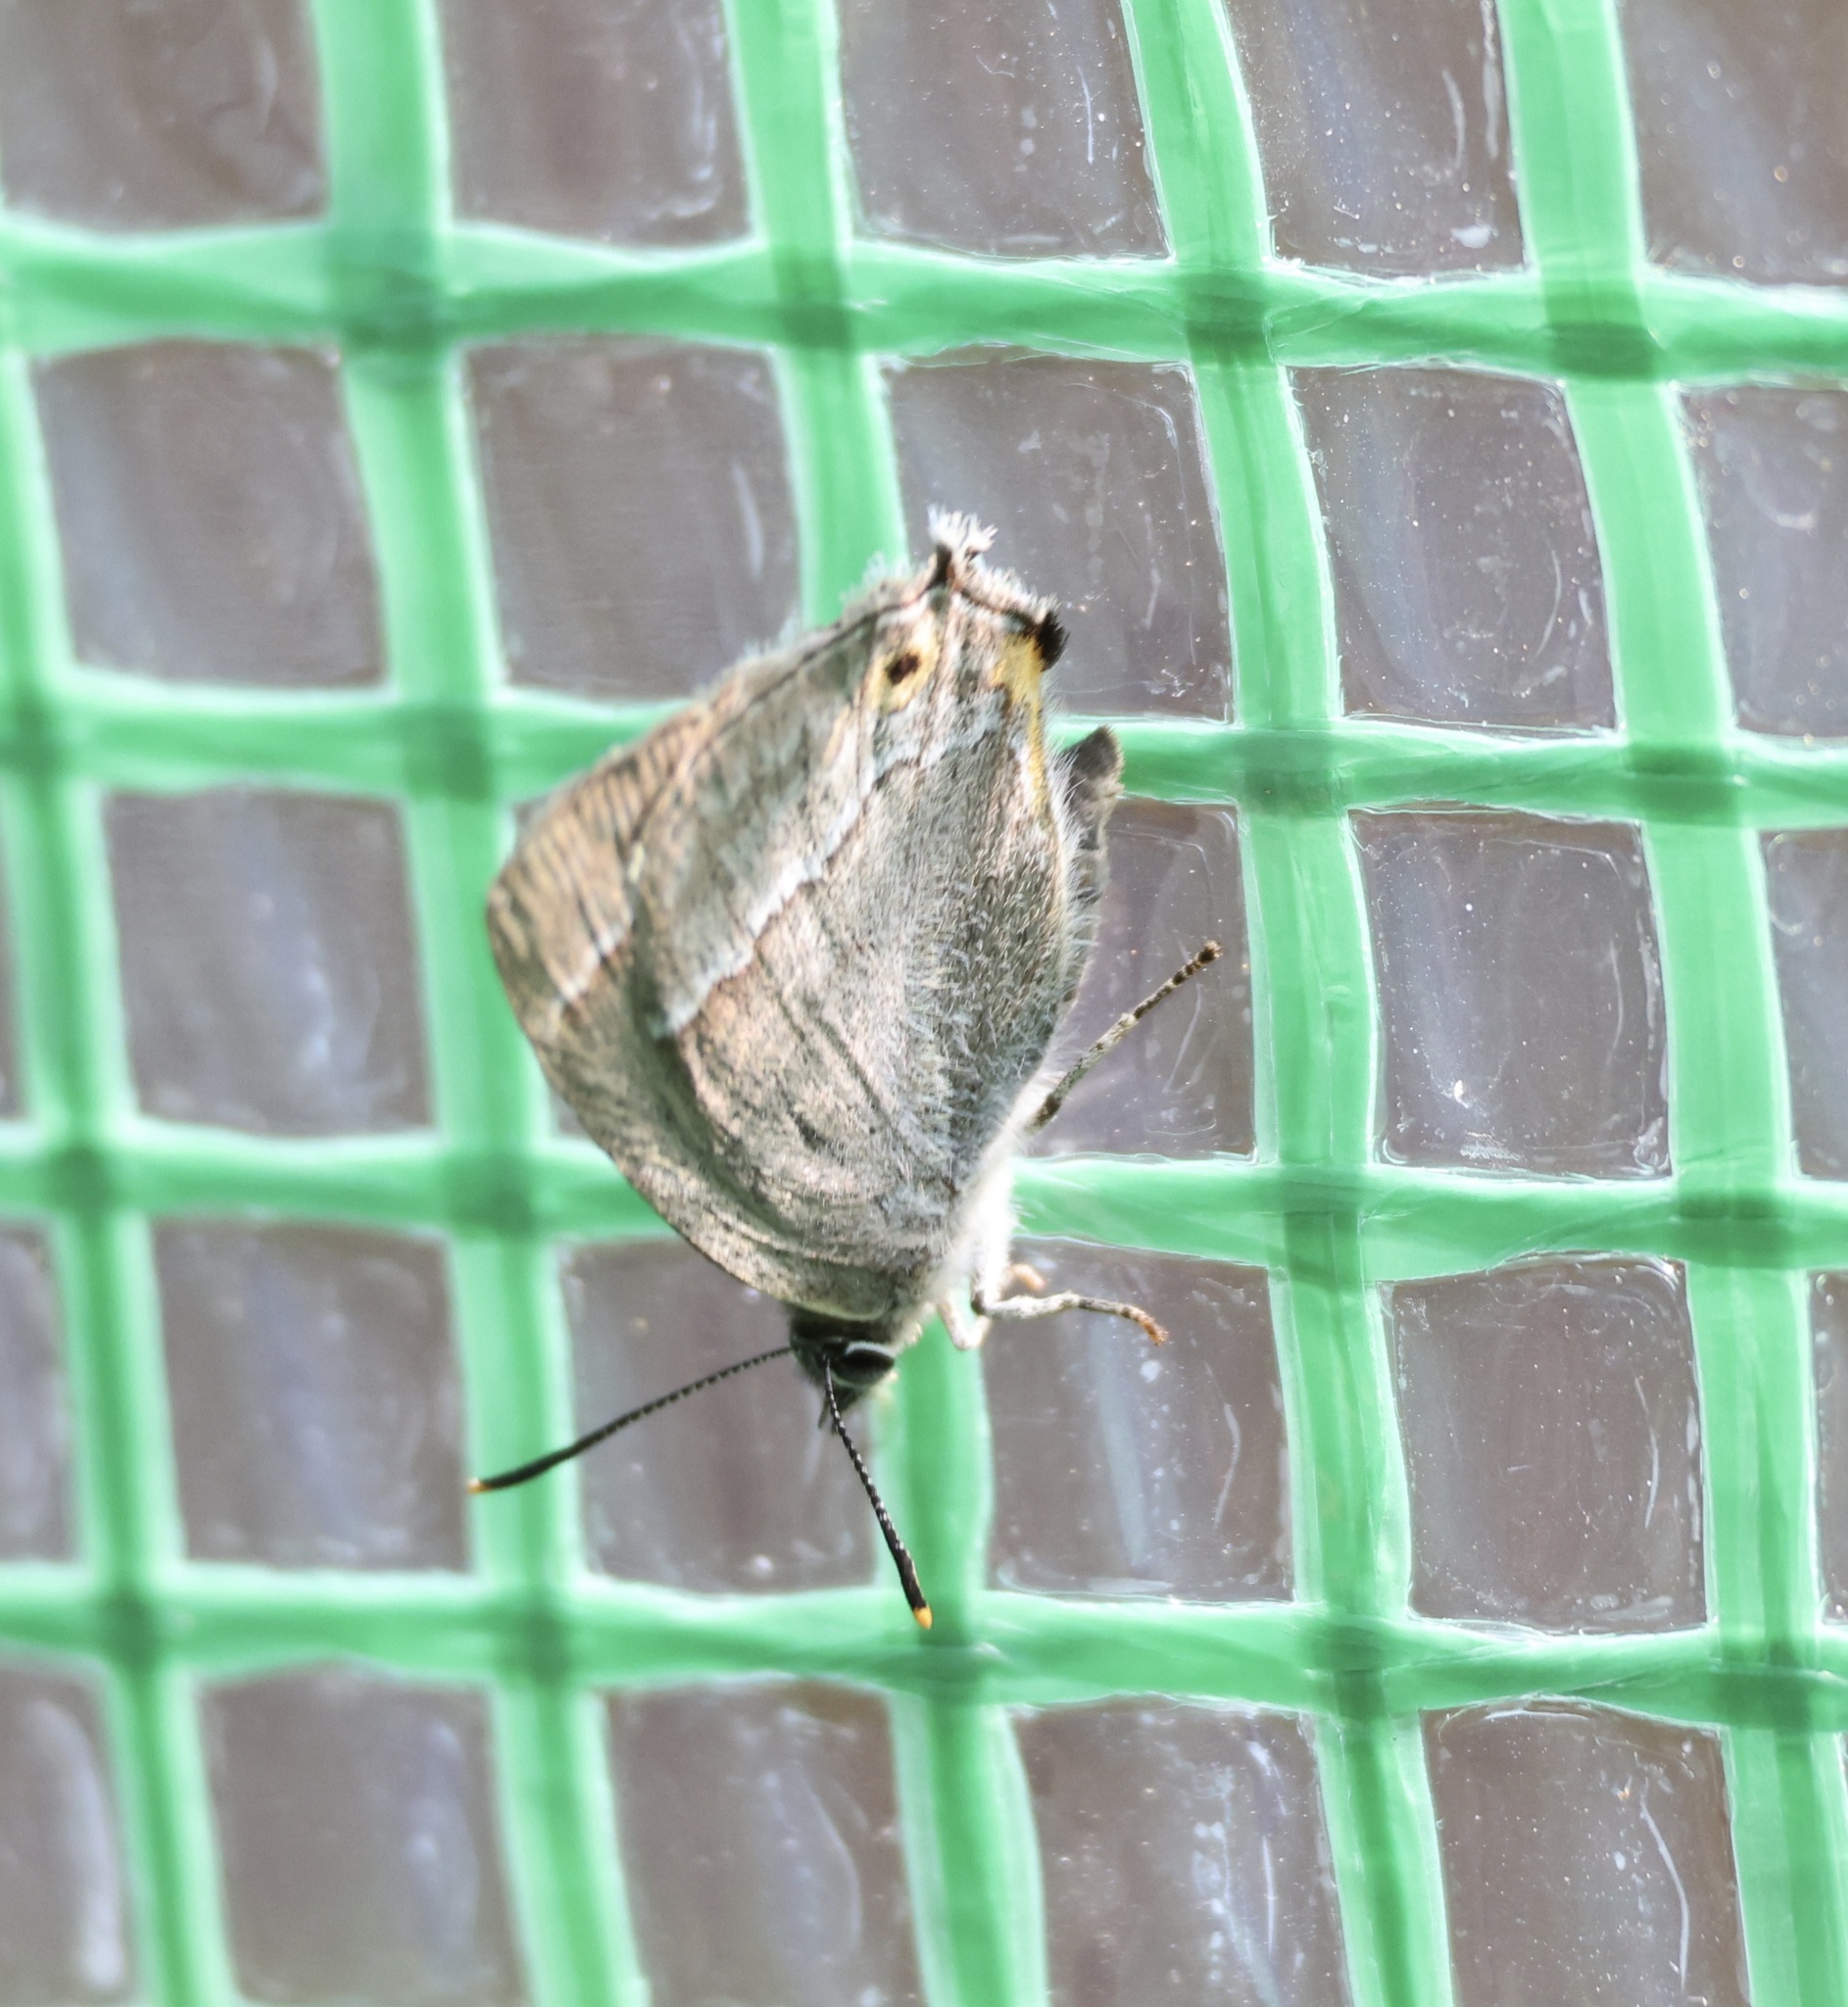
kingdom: Animalia
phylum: Arthropoda
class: Insecta
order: Lepidoptera
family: Lycaenidae
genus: Quercusia
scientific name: Quercusia quercus
